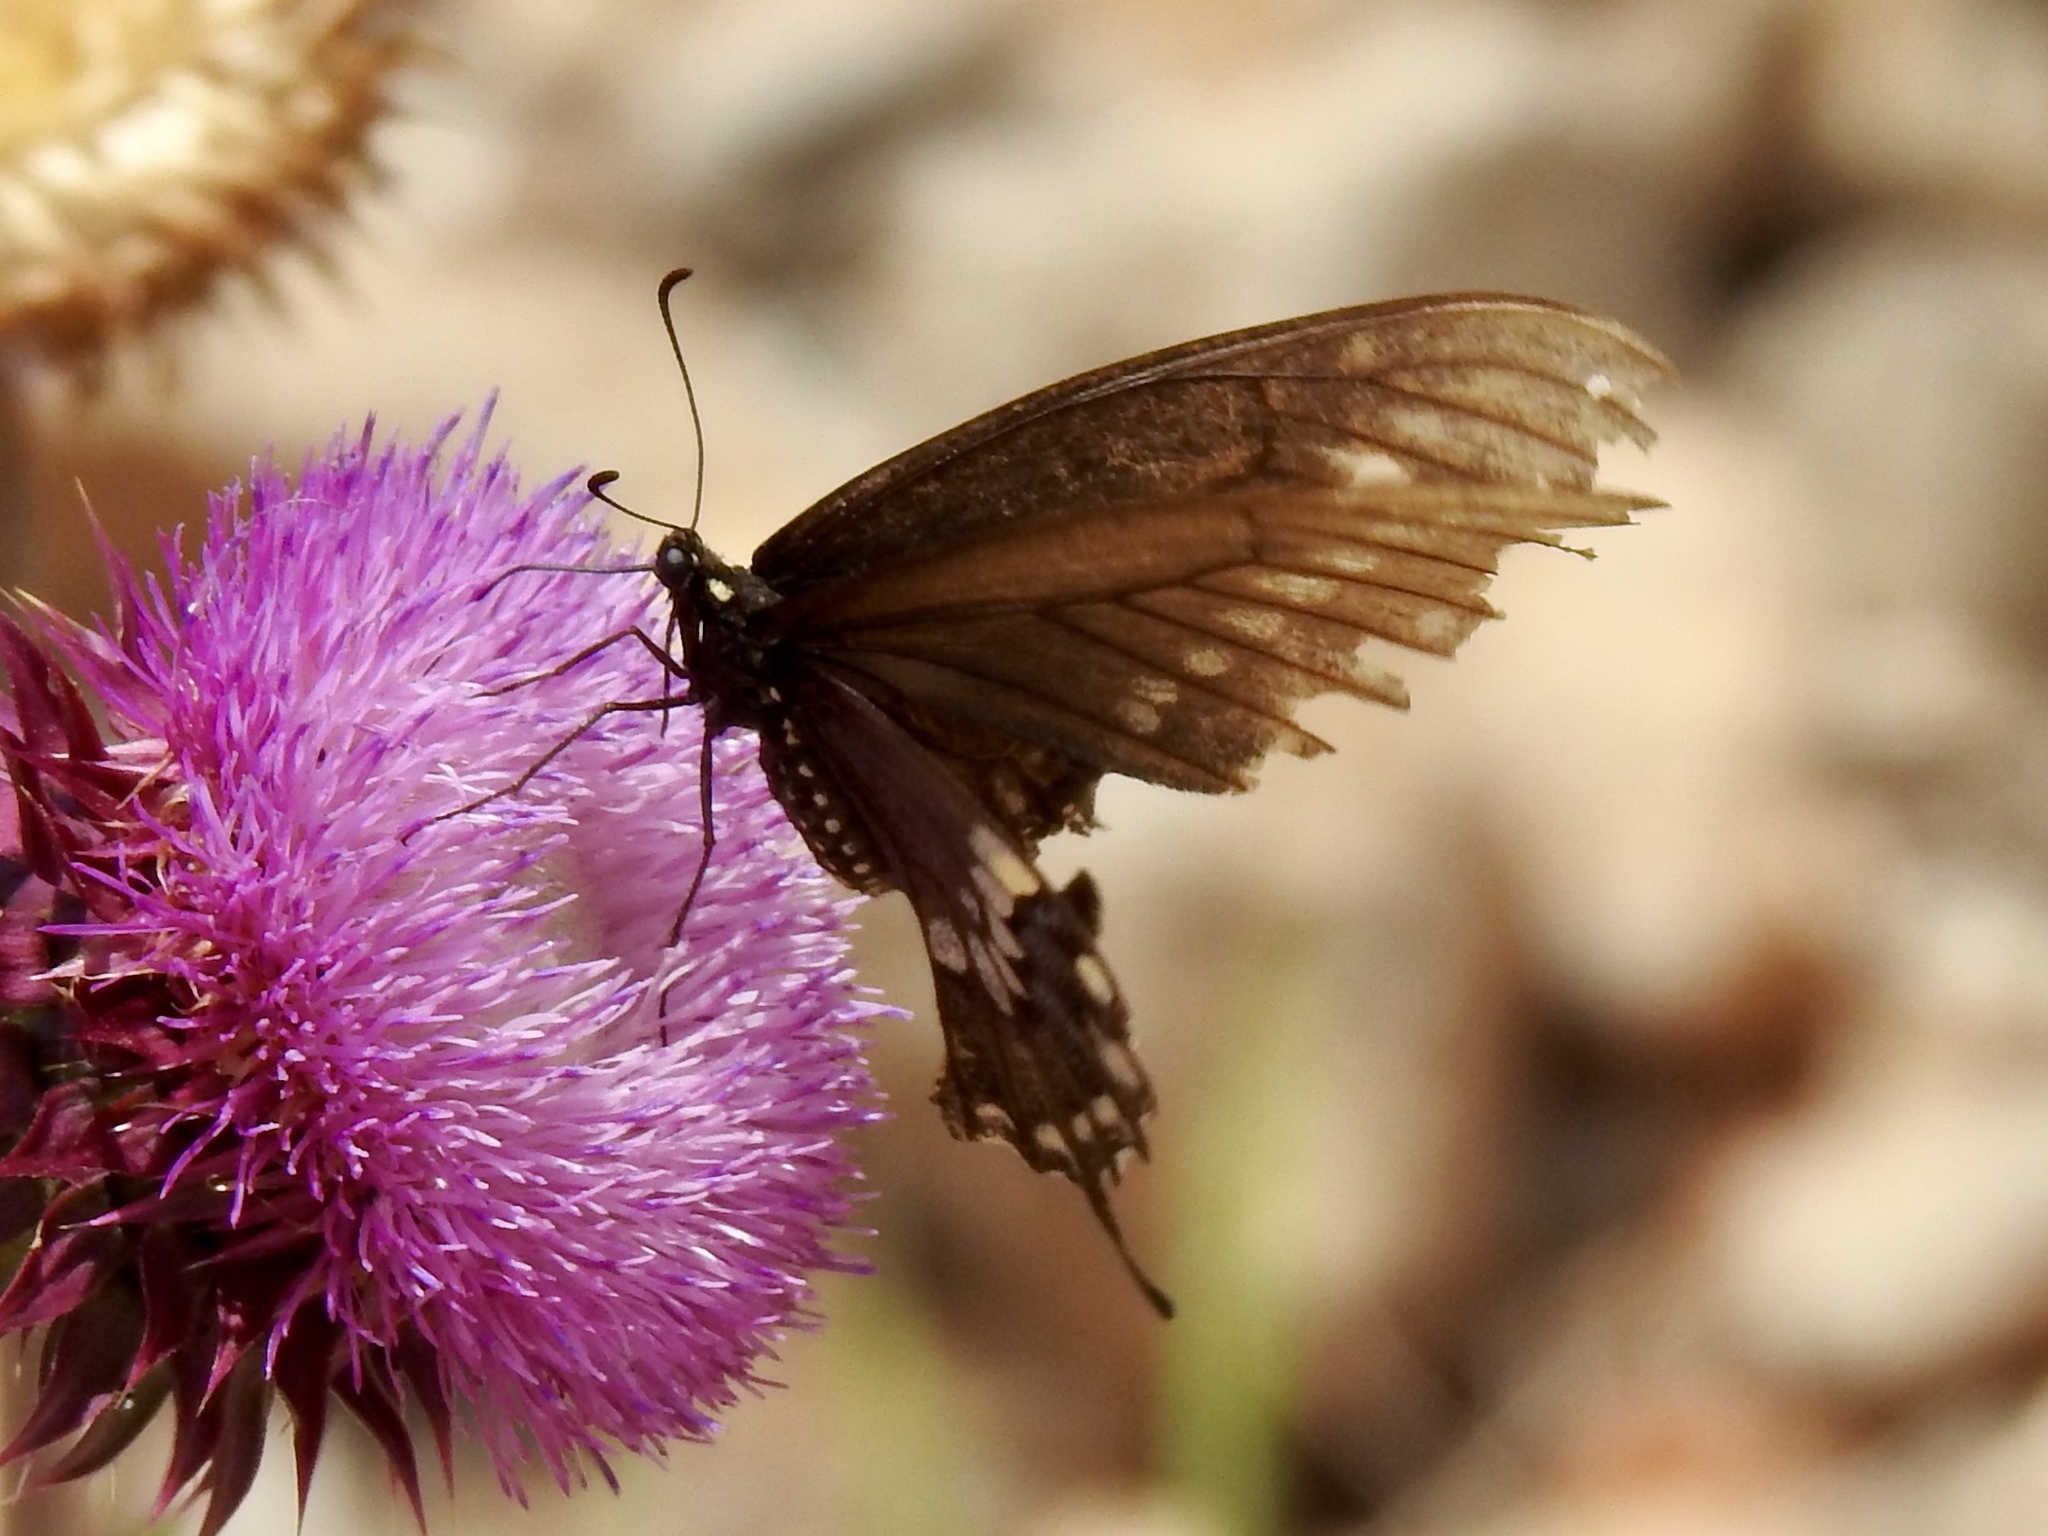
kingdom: Animalia
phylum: Arthropoda
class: Insecta
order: Lepidoptera
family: Papilionidae
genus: Papilio
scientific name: Papilio polyxenes
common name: Black swallowtail
